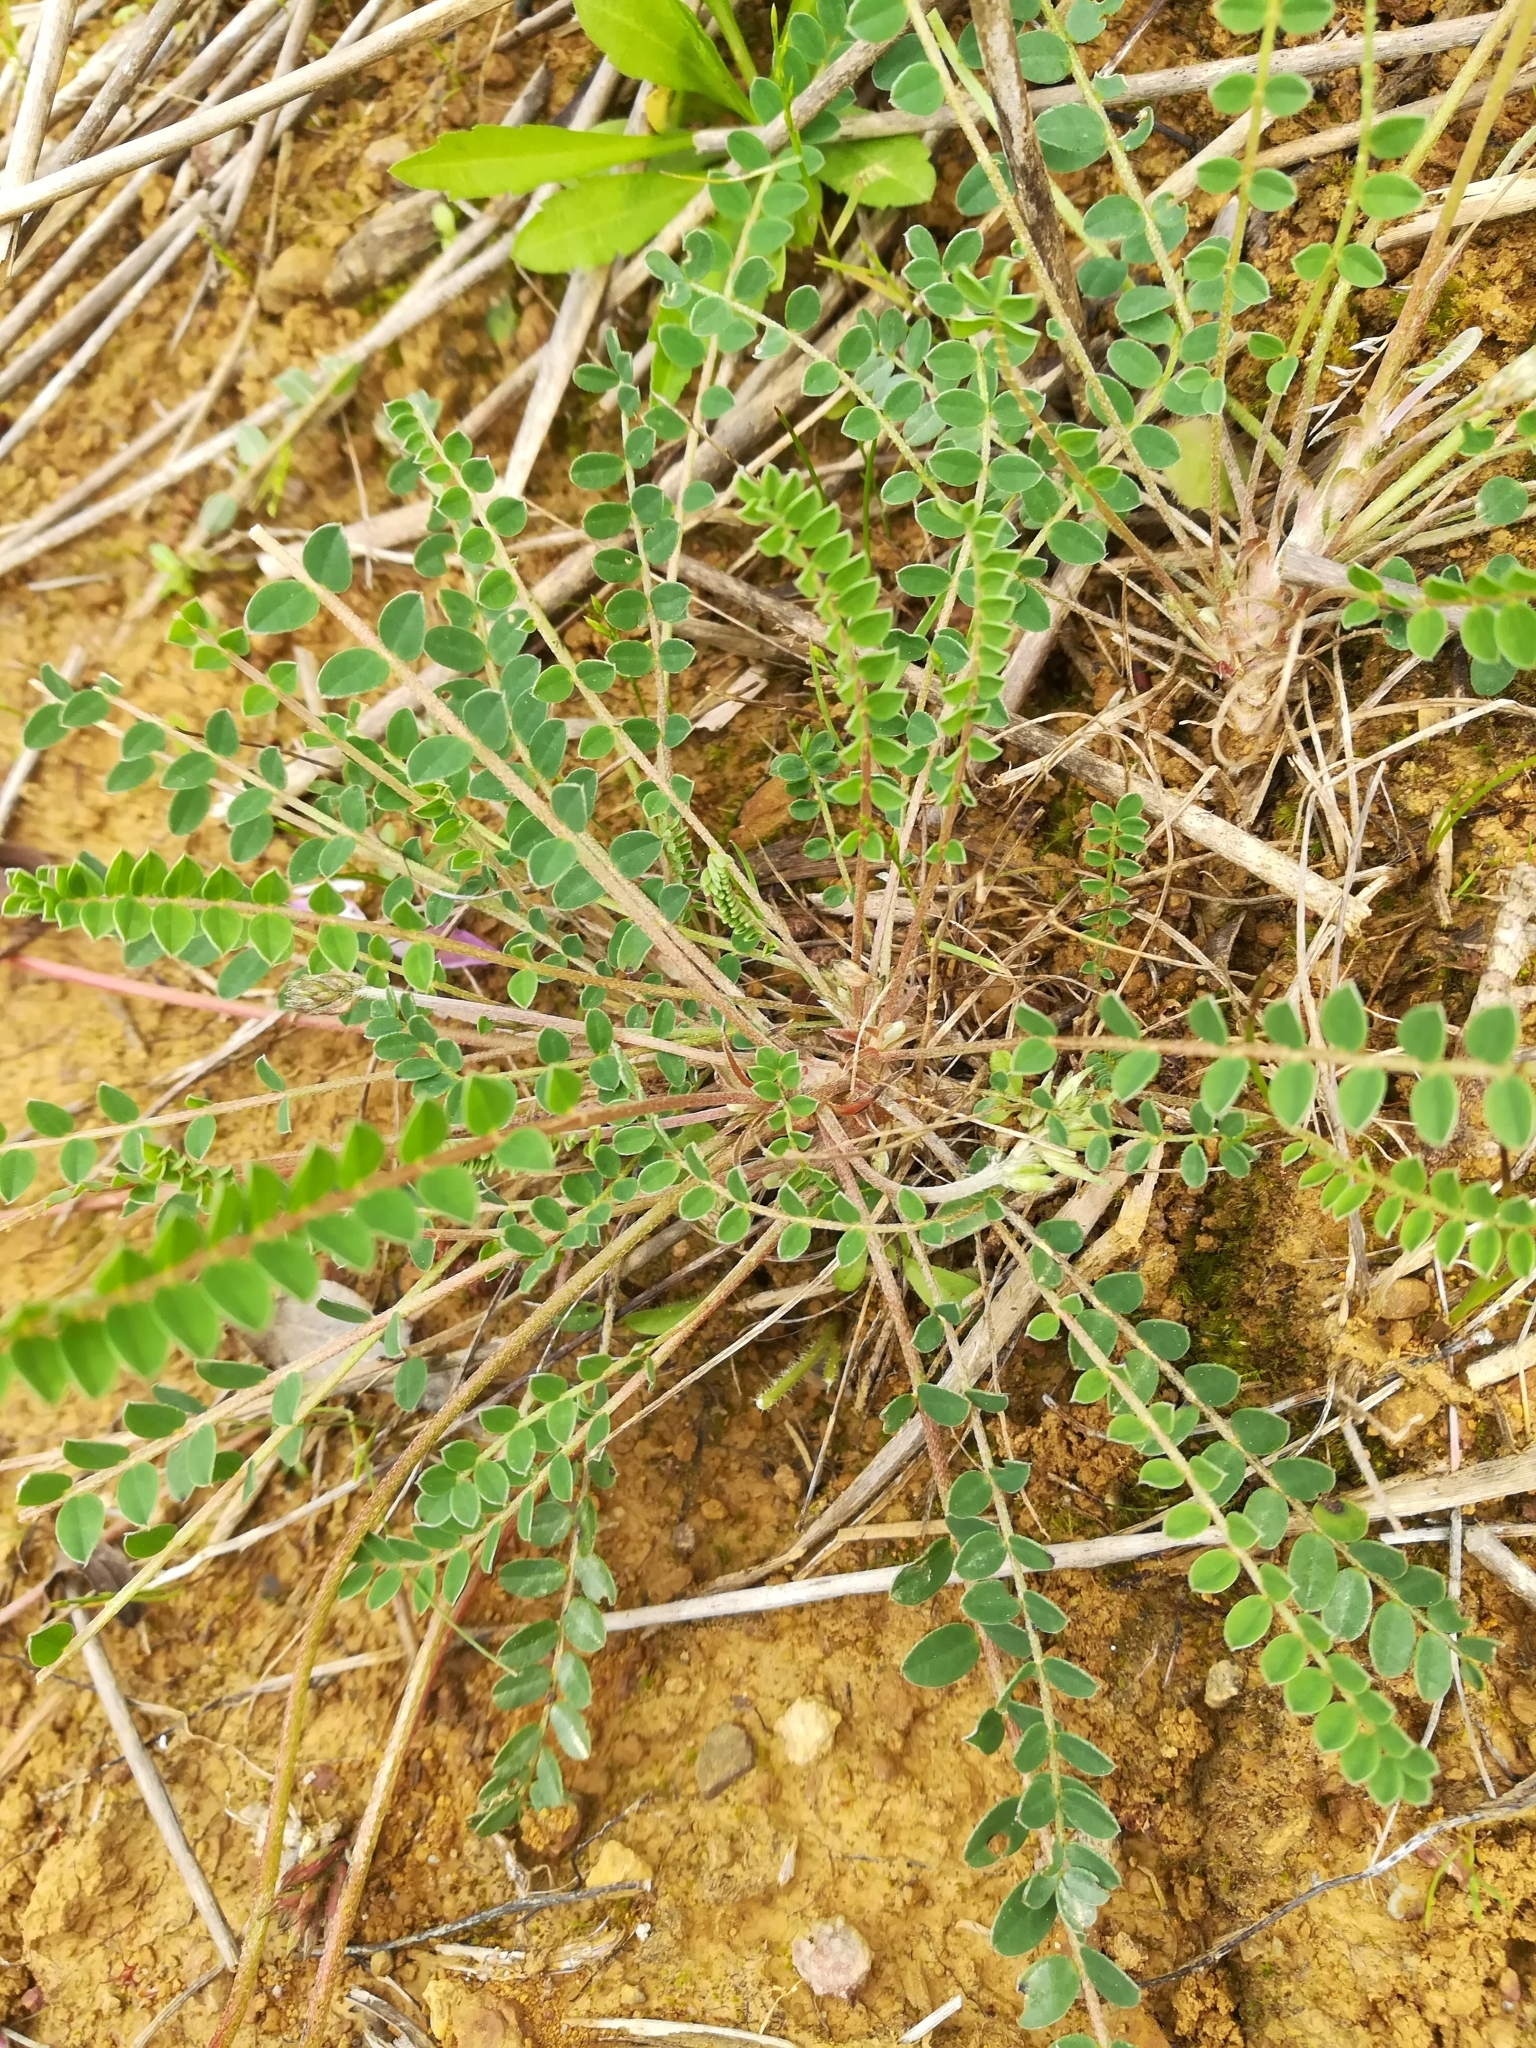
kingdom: Plantae
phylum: Tracheophyta
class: Magnoliopsida
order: Fabales
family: Fabaceae
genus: Astragalus
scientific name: Astragalus monspessulanus
